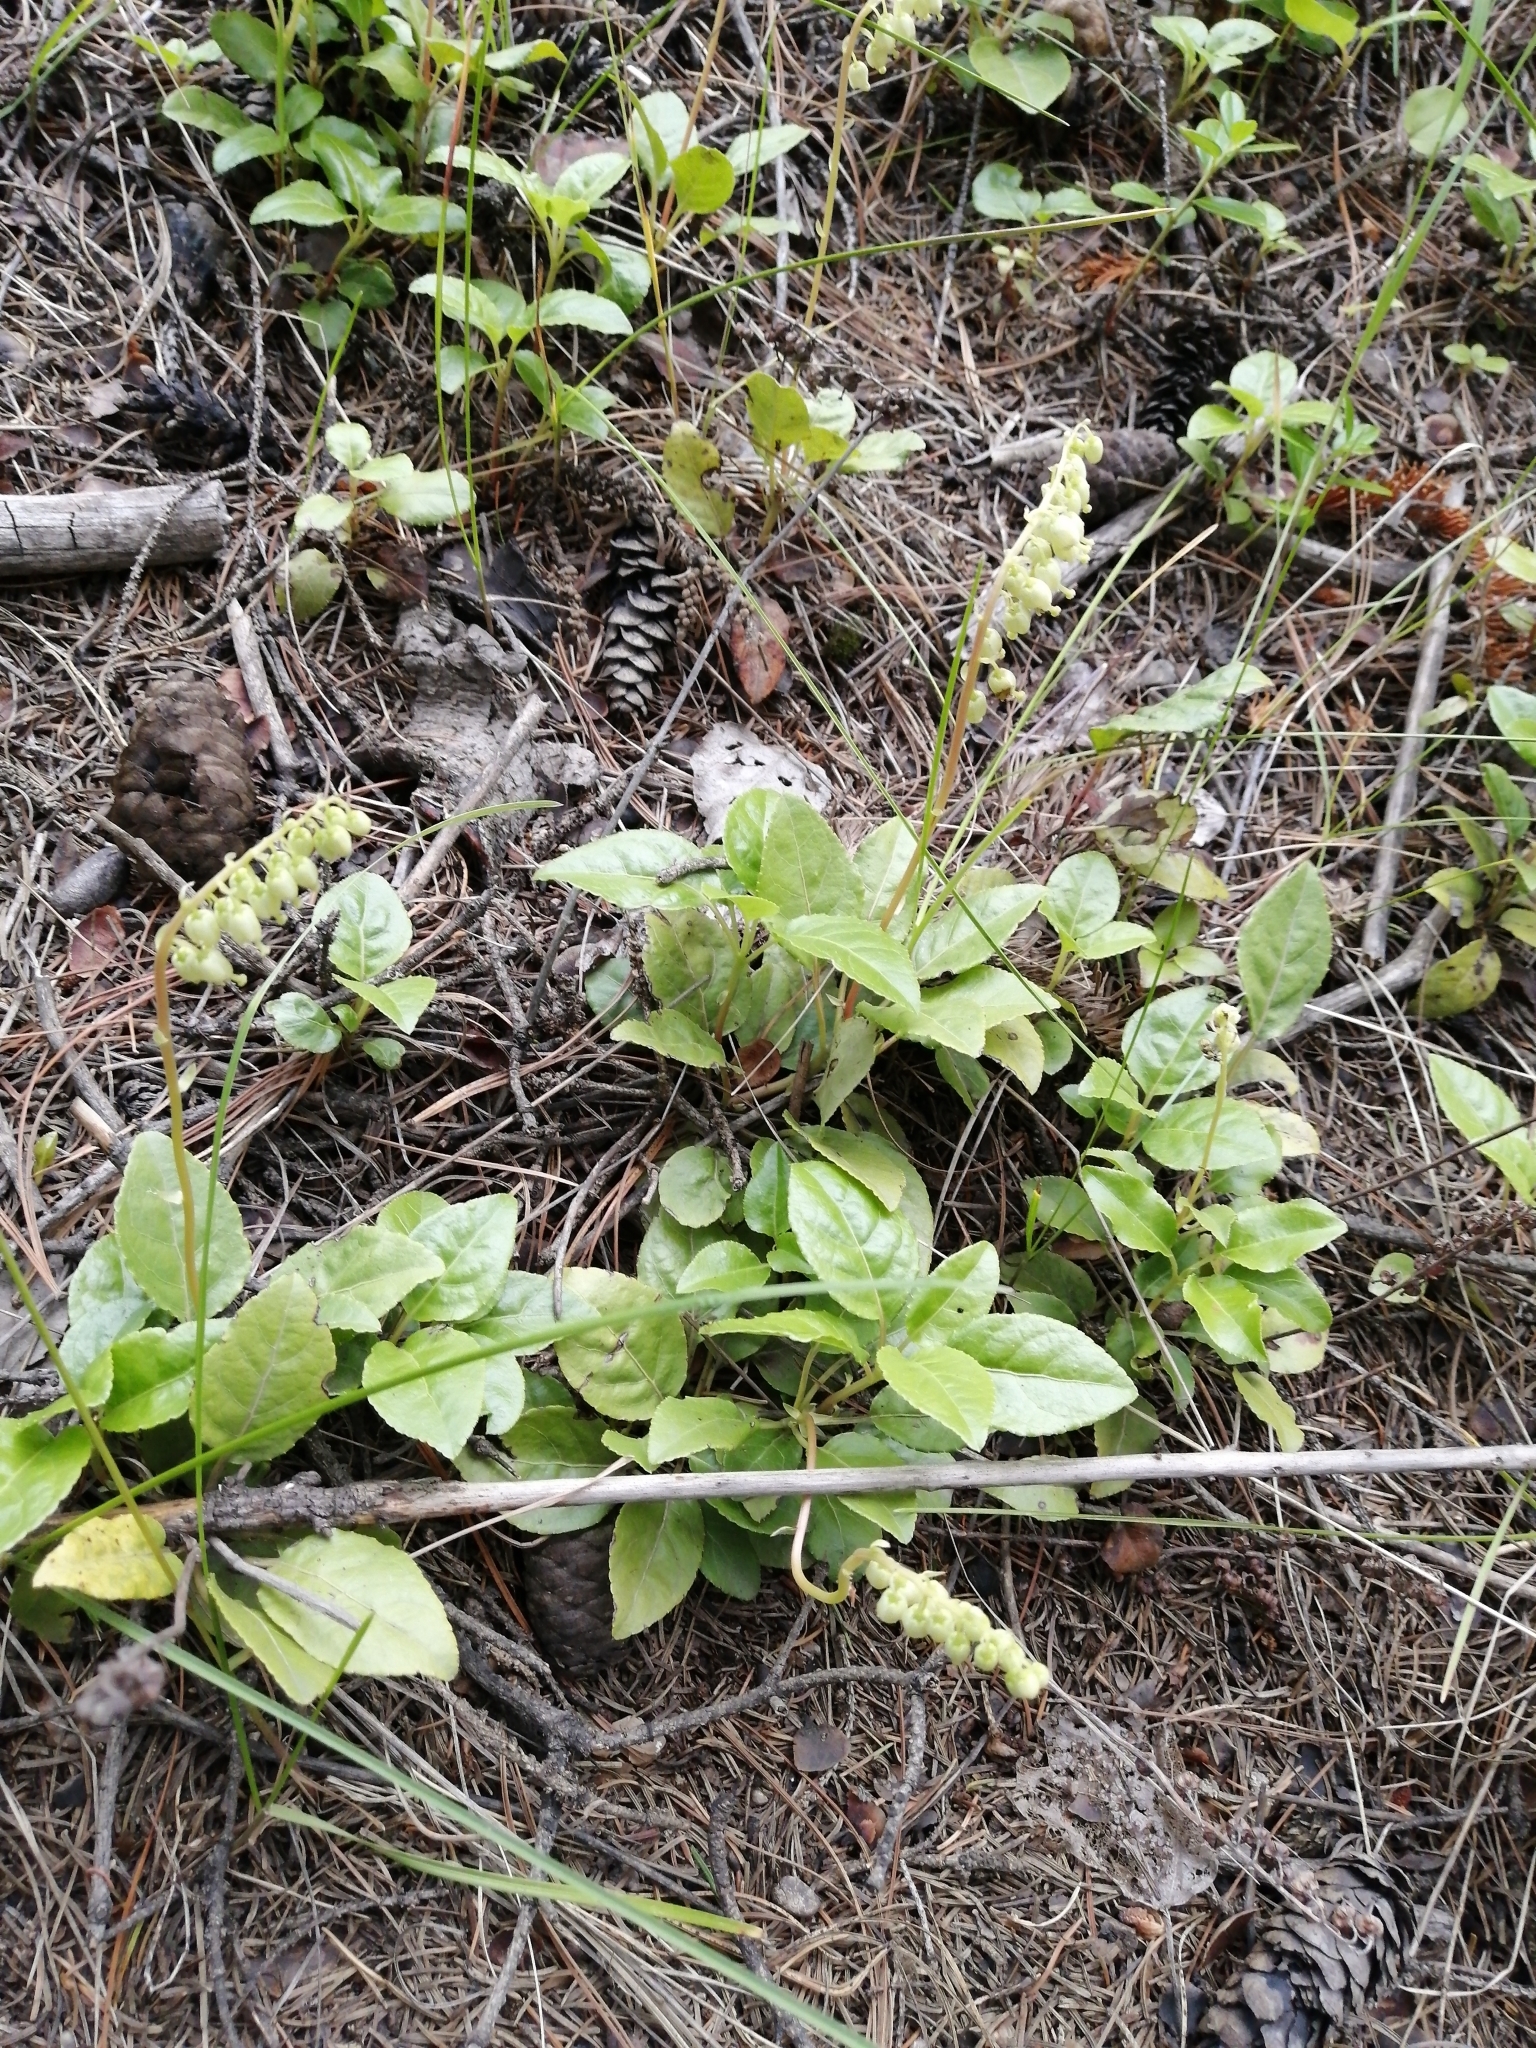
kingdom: Plantae
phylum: Tracheophyta
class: Magnoliopsida
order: Ericales
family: Ericaceae
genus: Orthilia
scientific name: Orthilia secunda
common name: One-sided orthilia
